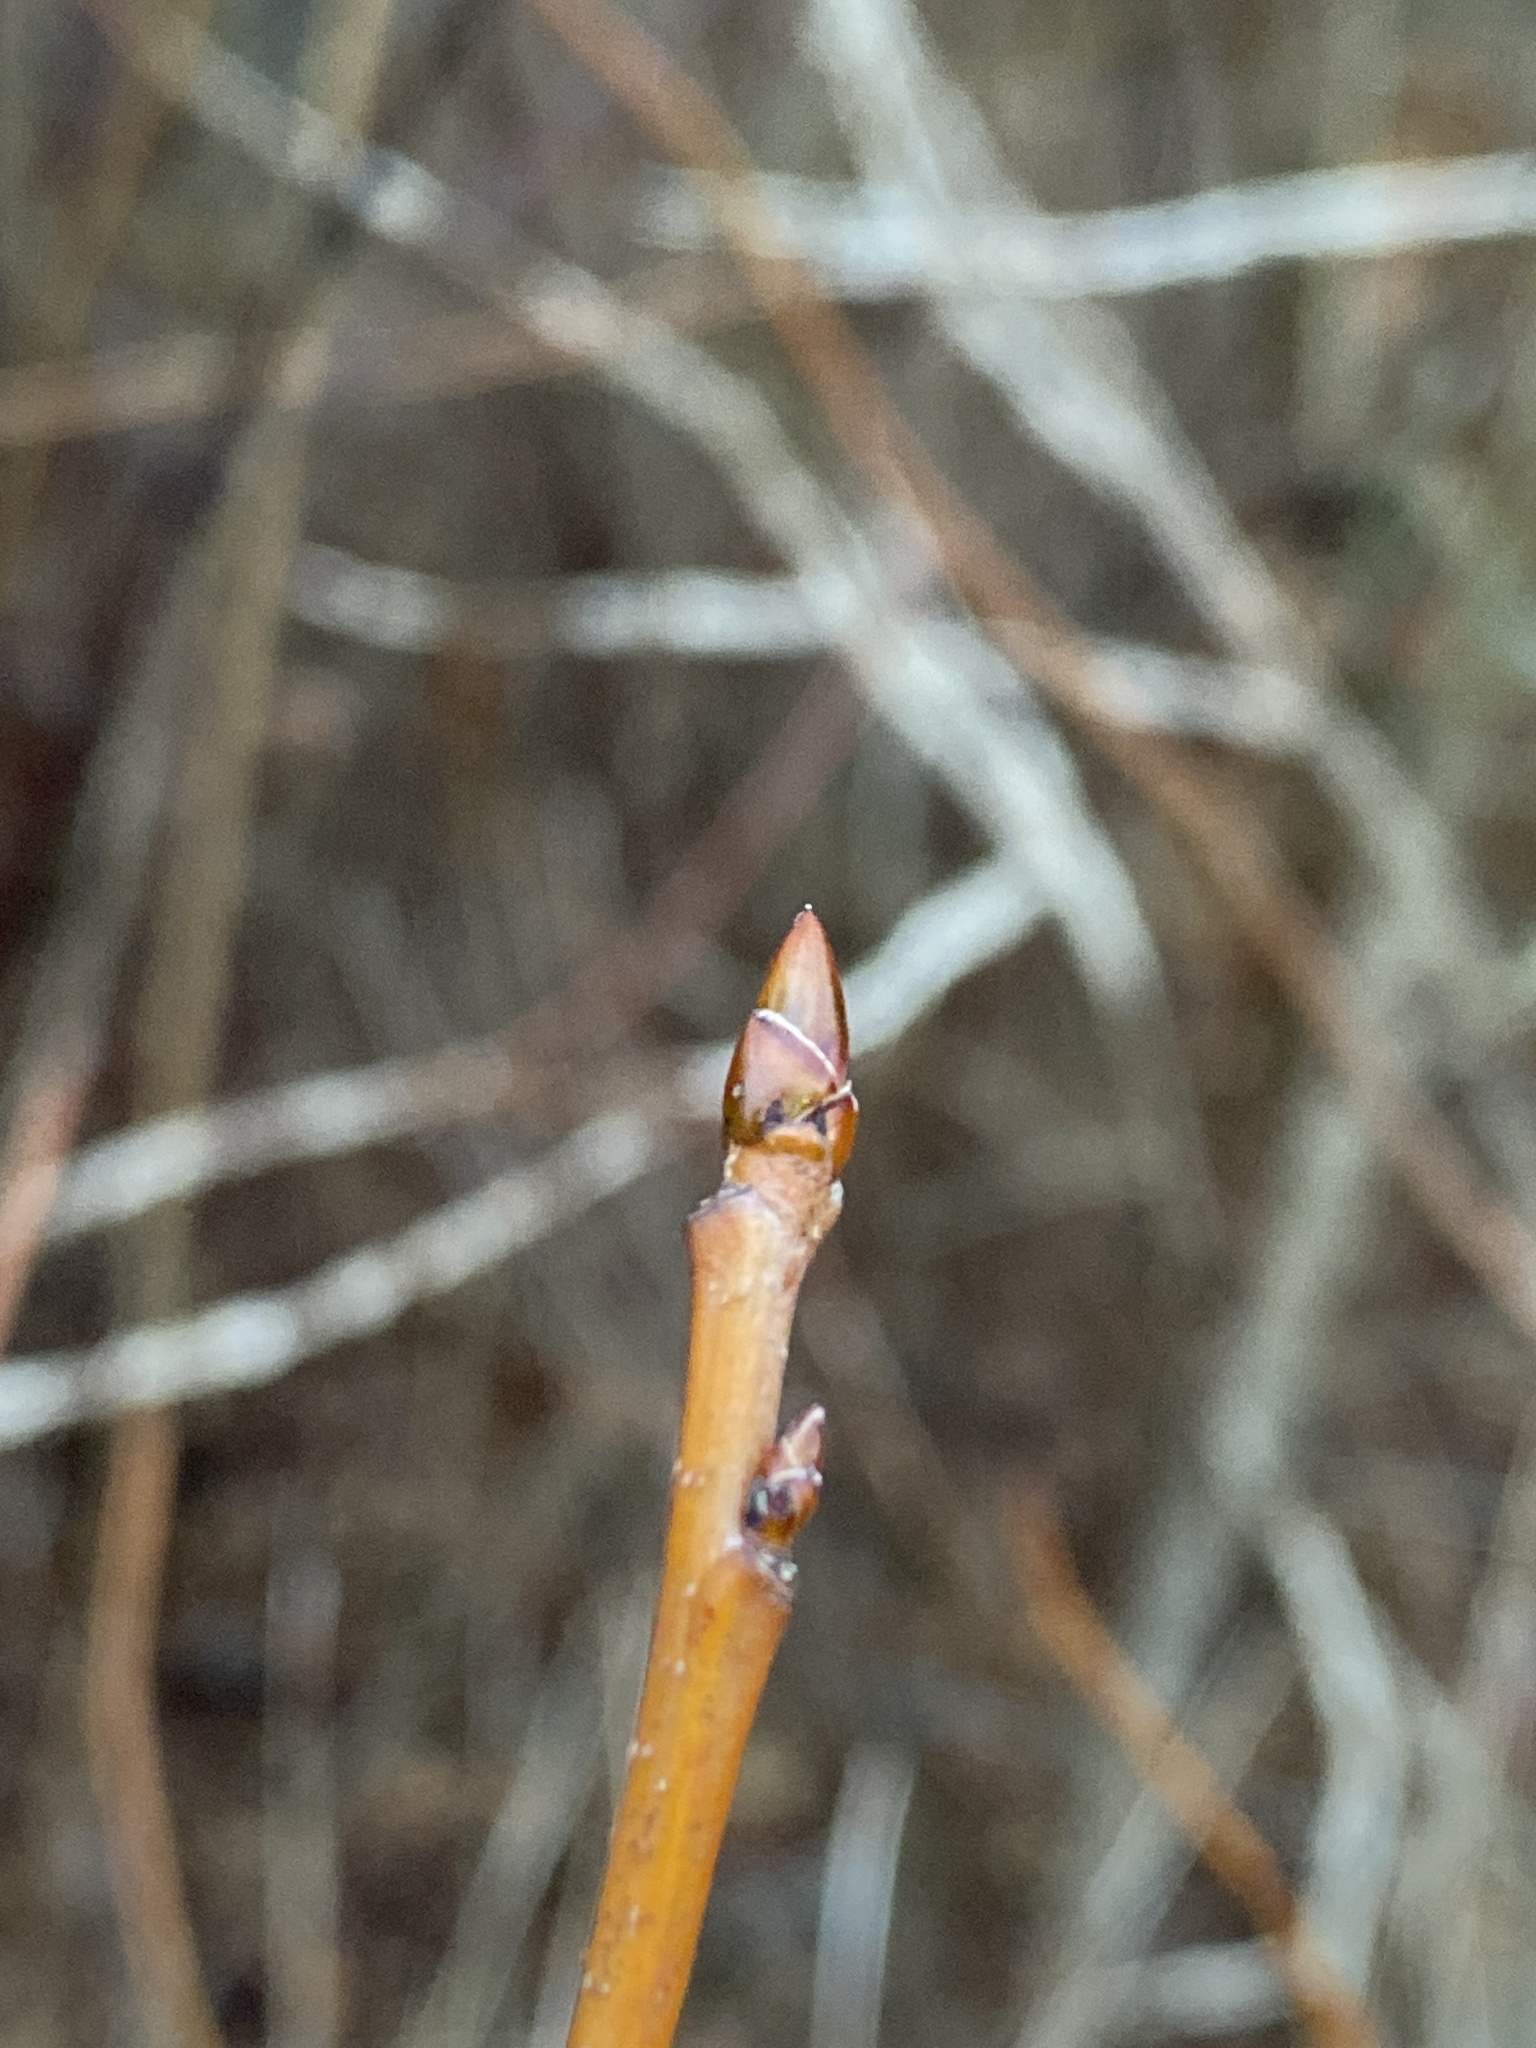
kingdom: Plantae
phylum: Tracheophyta
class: Magnoliopsida
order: Saxifragales
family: Altingiaceae
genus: Liquidambar
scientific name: Liquidambar styraciflua
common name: Sweet gum
